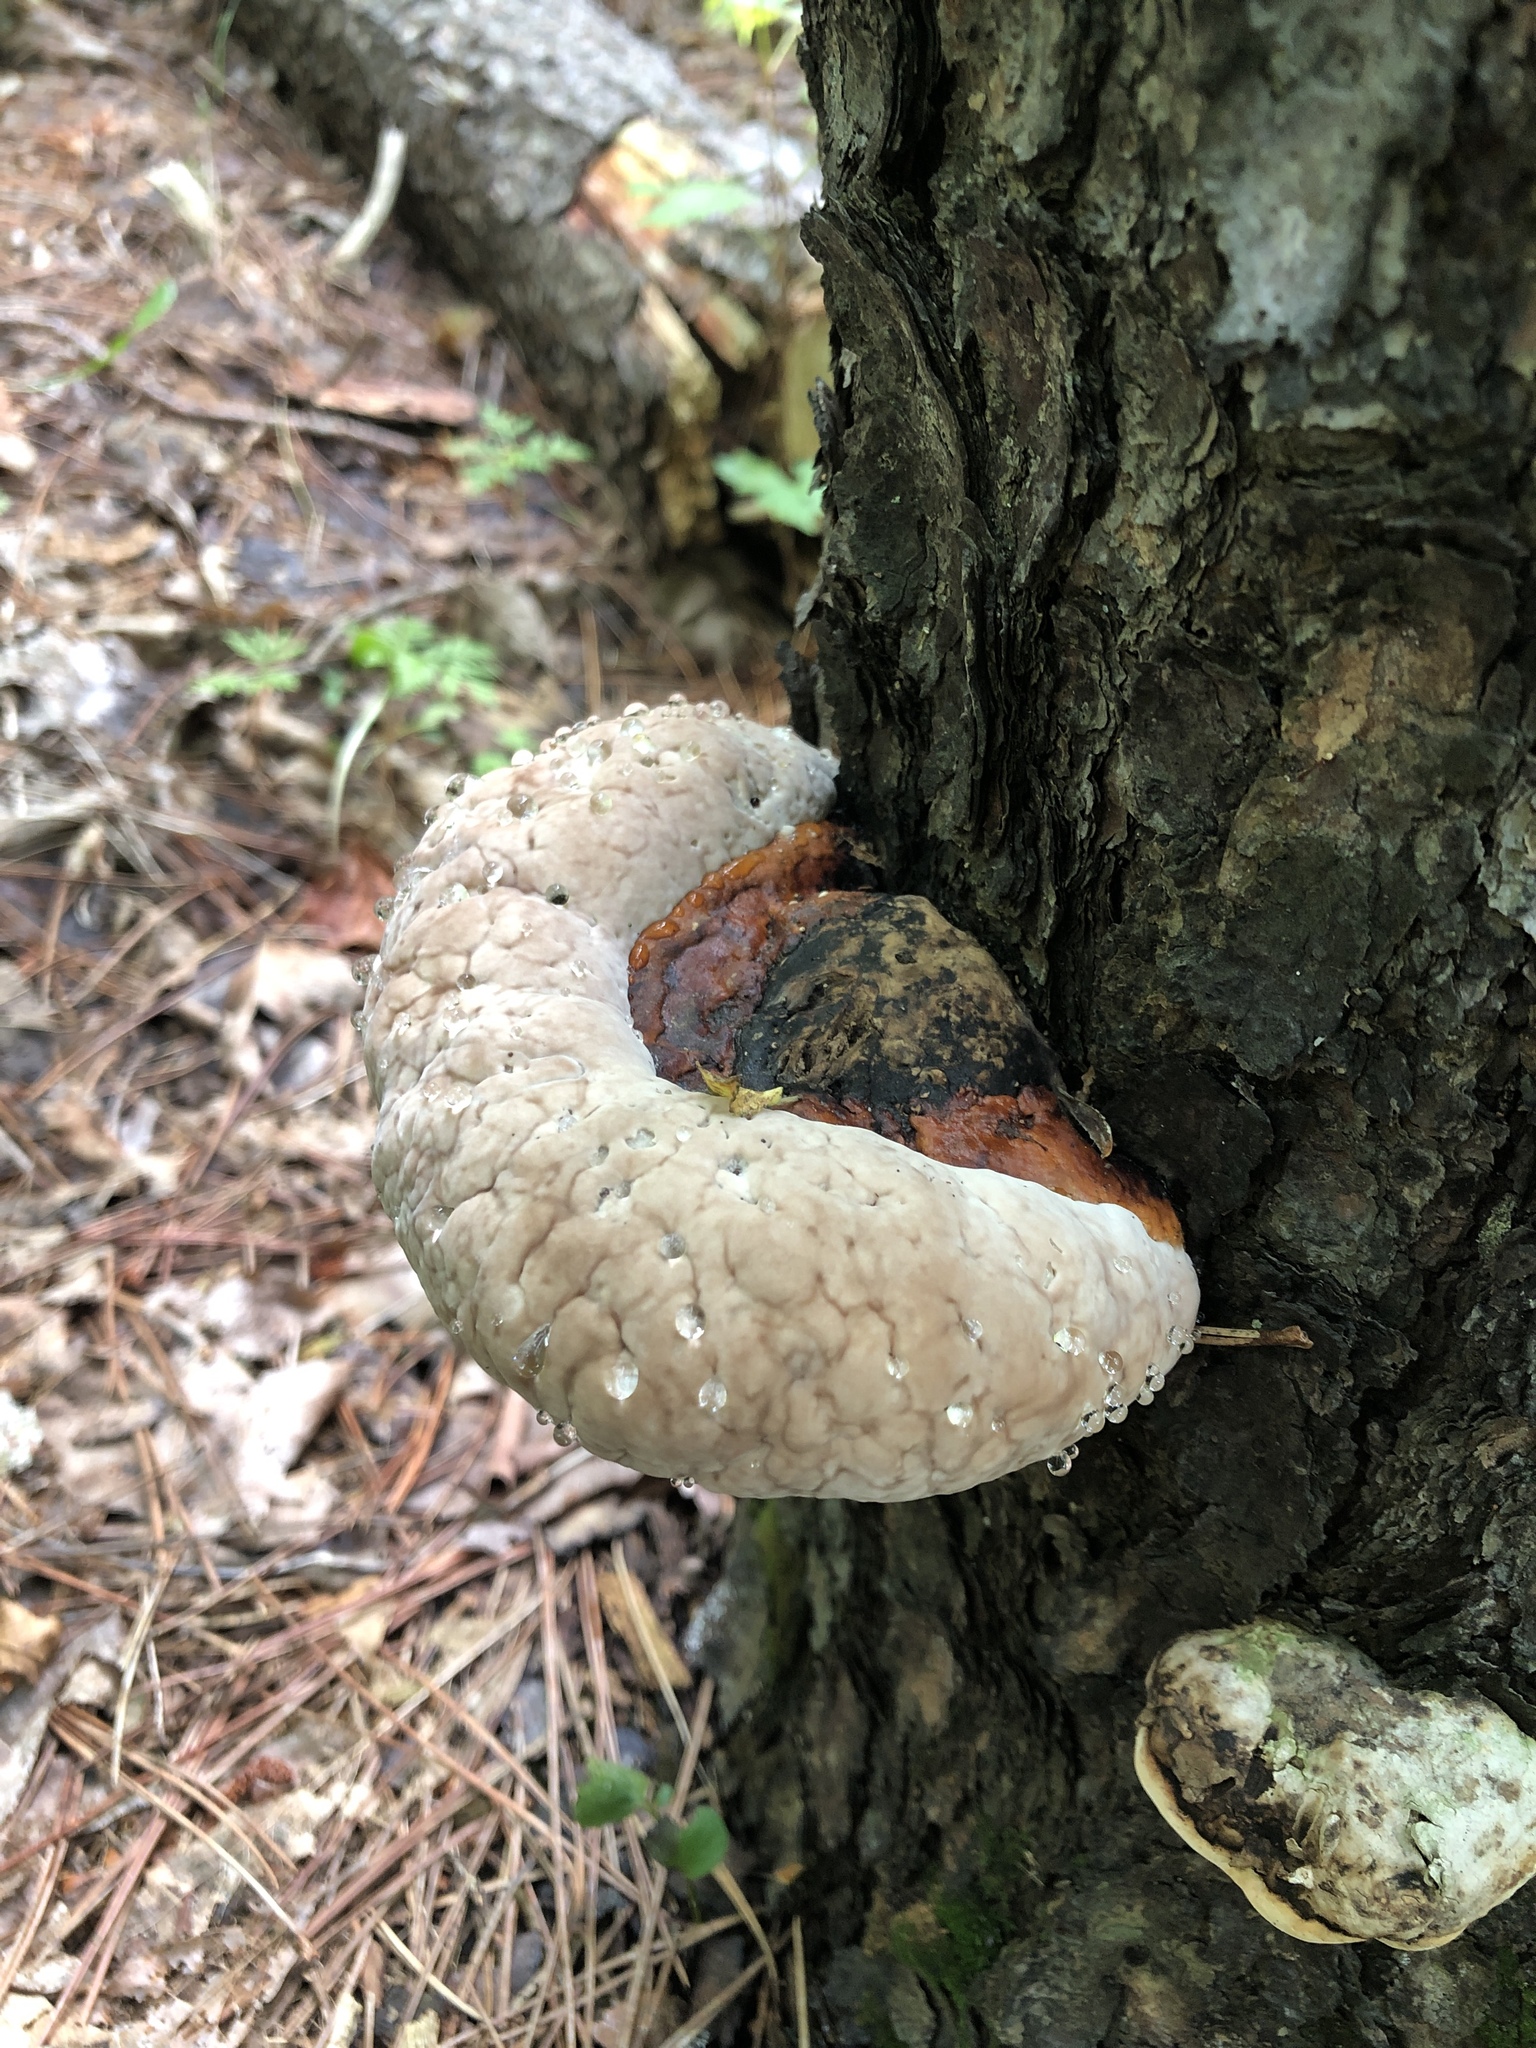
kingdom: Fungi
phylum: Basidiomycota
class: Agaricomycetes
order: Polyporales
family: Fomitopsidaceae
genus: Fomitopsis
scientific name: Fomitopsis mounceae
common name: Northern red belt
